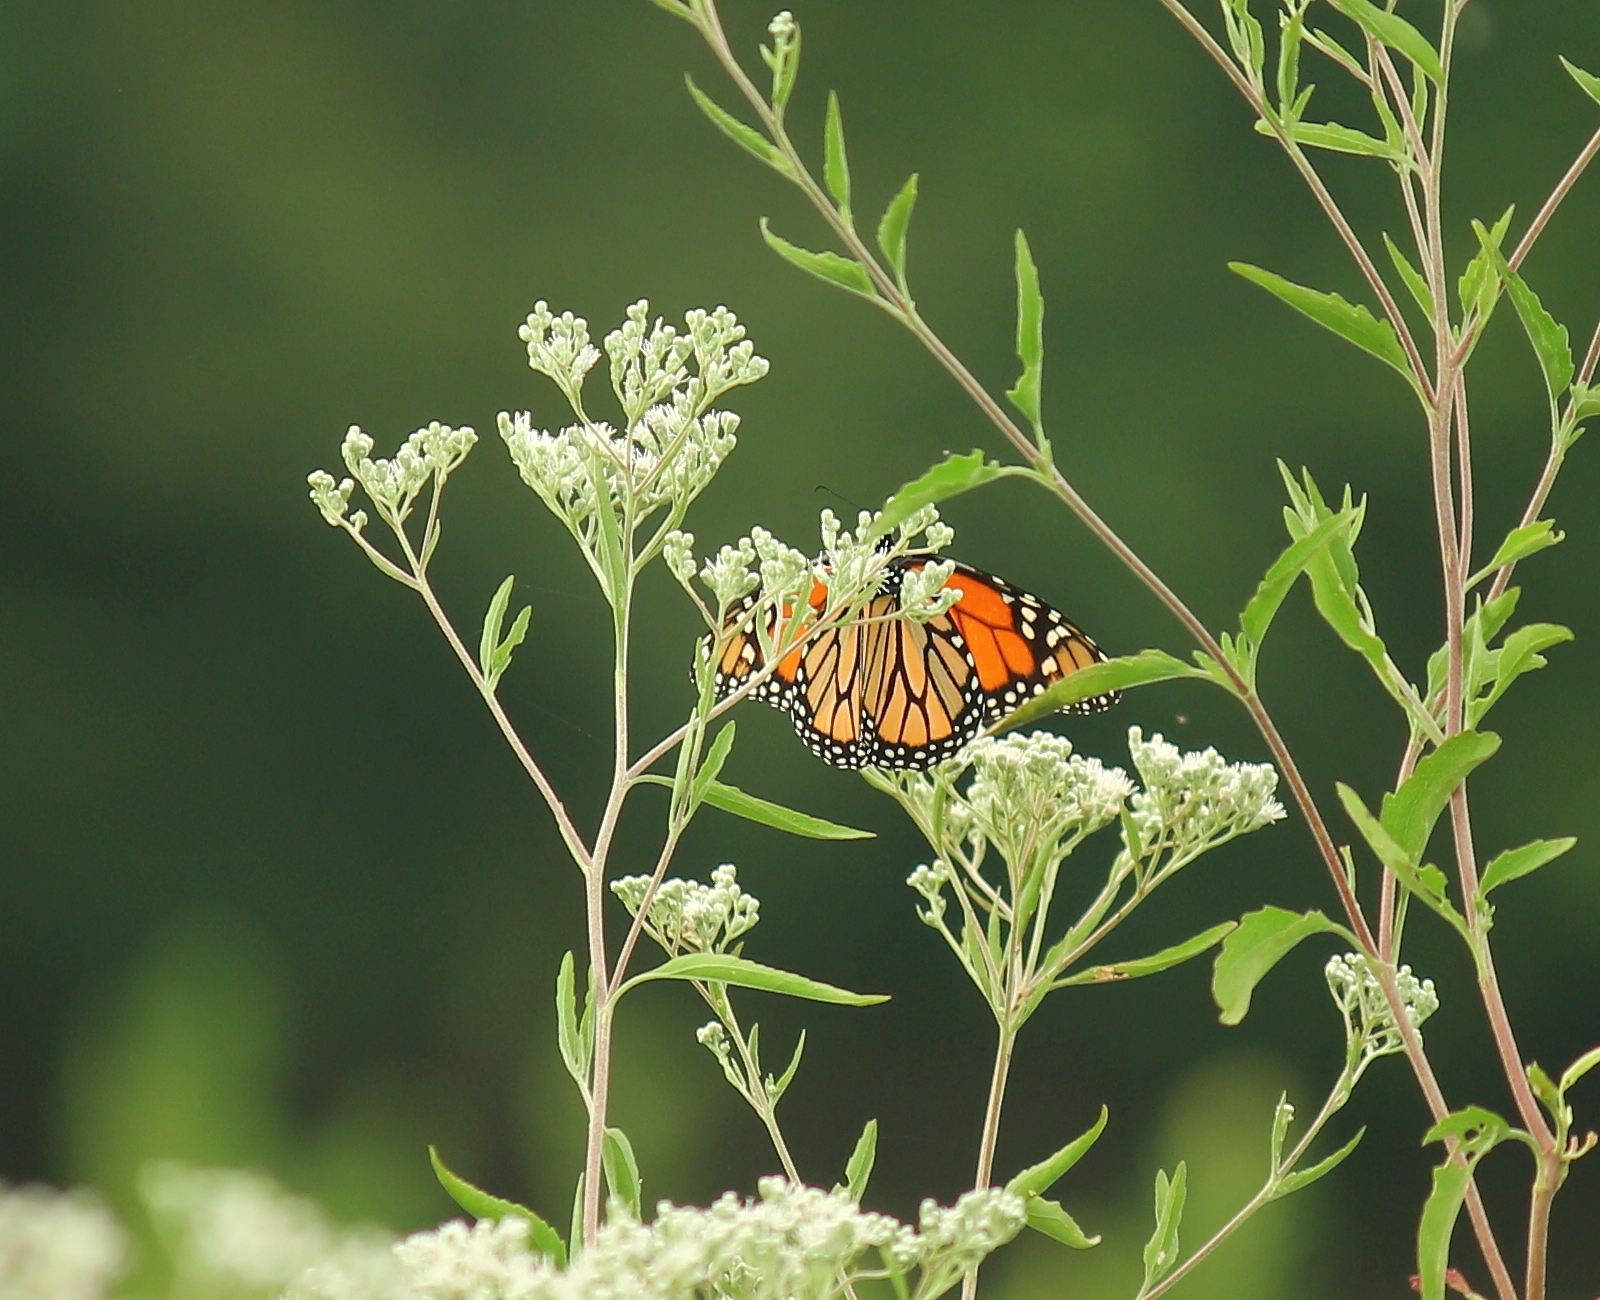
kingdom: Animalia
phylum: Arthropoda
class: Insecta
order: Lepidoptera
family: Nymphalidae
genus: Danaus
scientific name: Danaus plexippus
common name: Monarch
